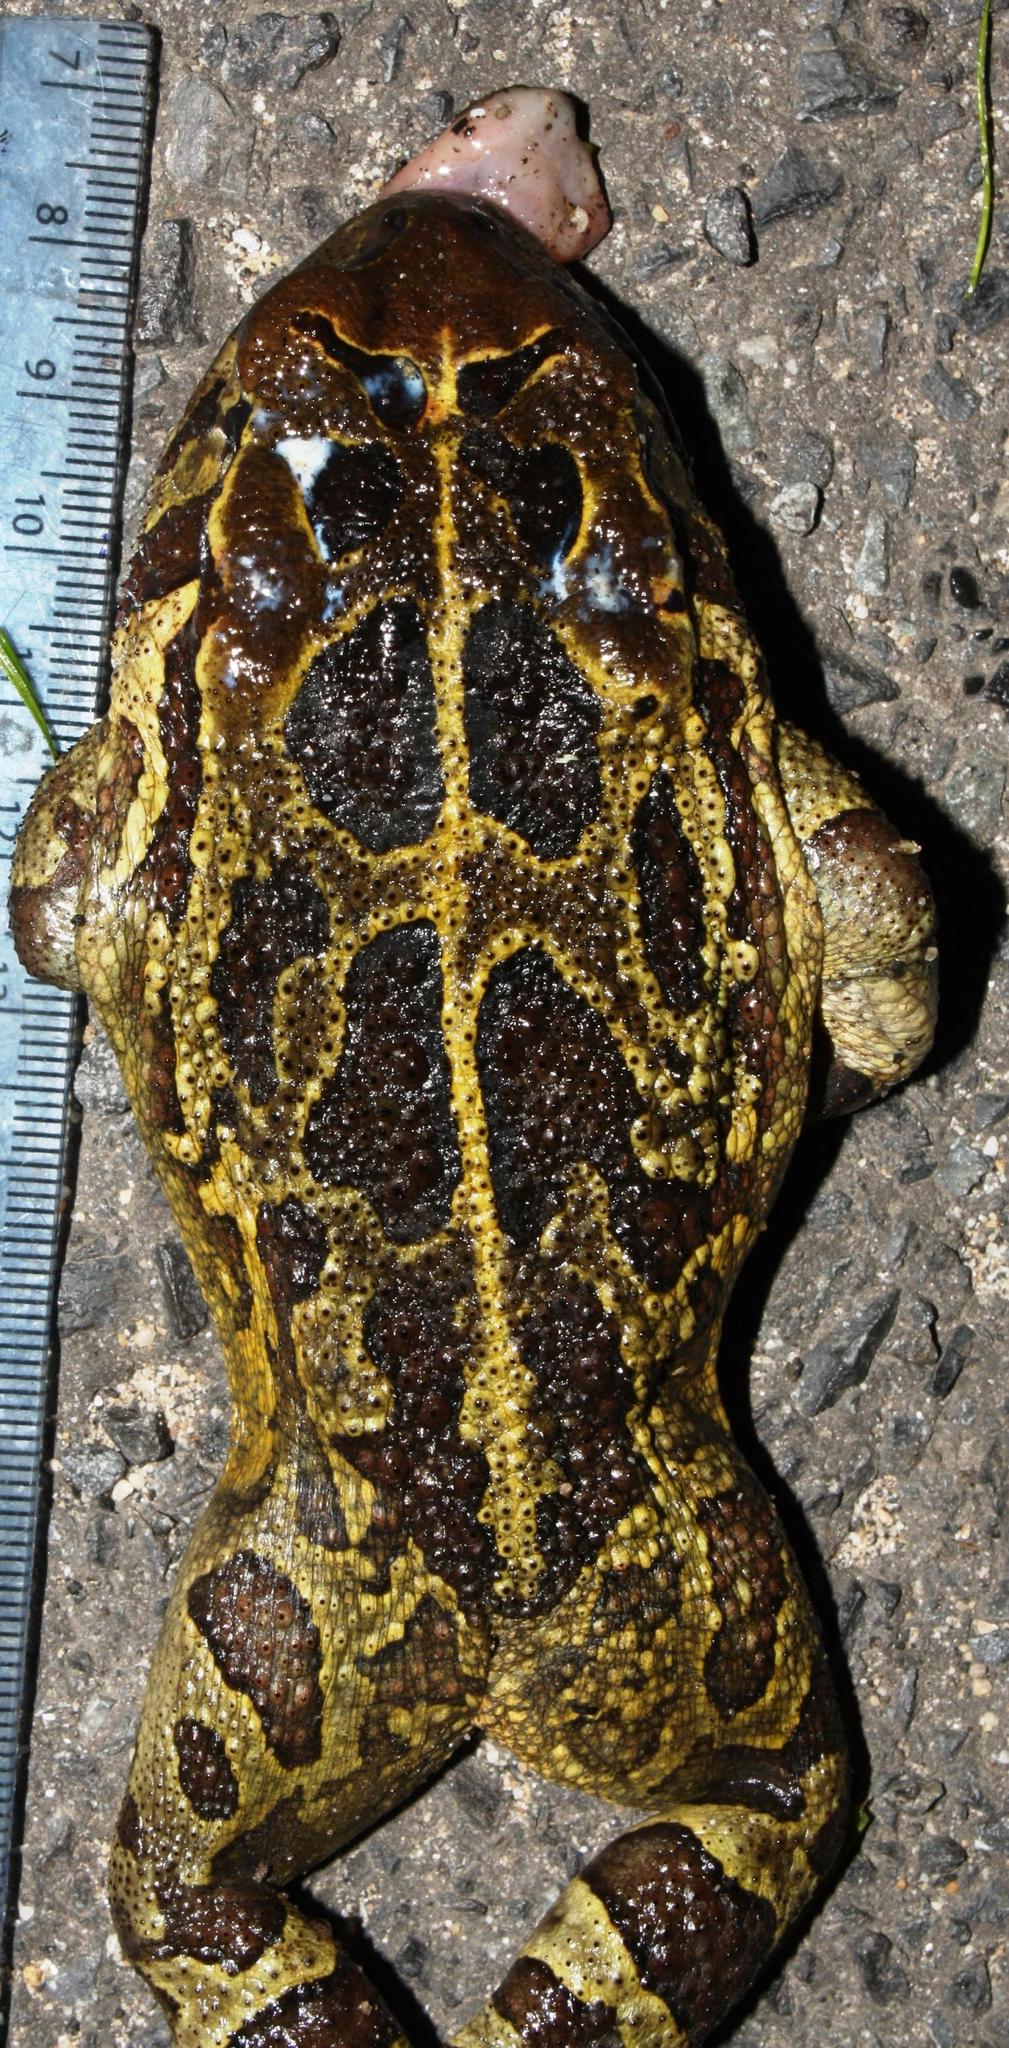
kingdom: Animalia
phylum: Chordata
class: Amphibia
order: Anura
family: Bufonidae
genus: Sclerophrys
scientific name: Sclerophrys pantherina
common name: Panther toad
